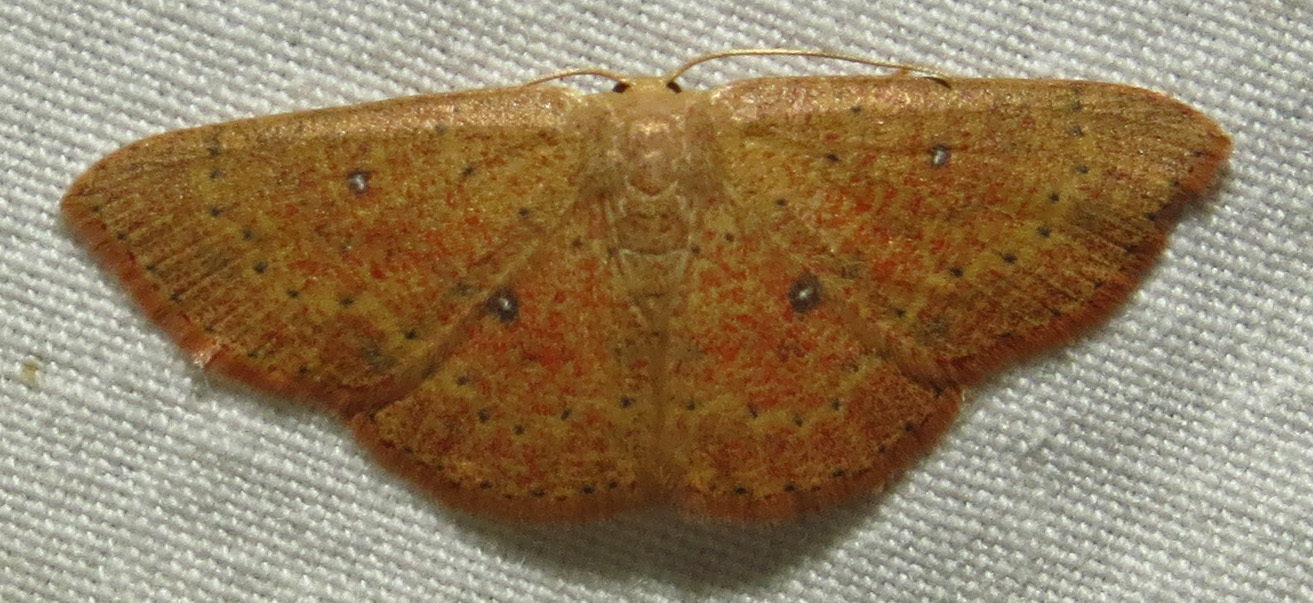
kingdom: Animalia
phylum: Arthropoda
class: Insecta
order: Lepidoptera
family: Geometridae
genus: Cyclophora
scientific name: Cyclophora packardi
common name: Packard's wave
